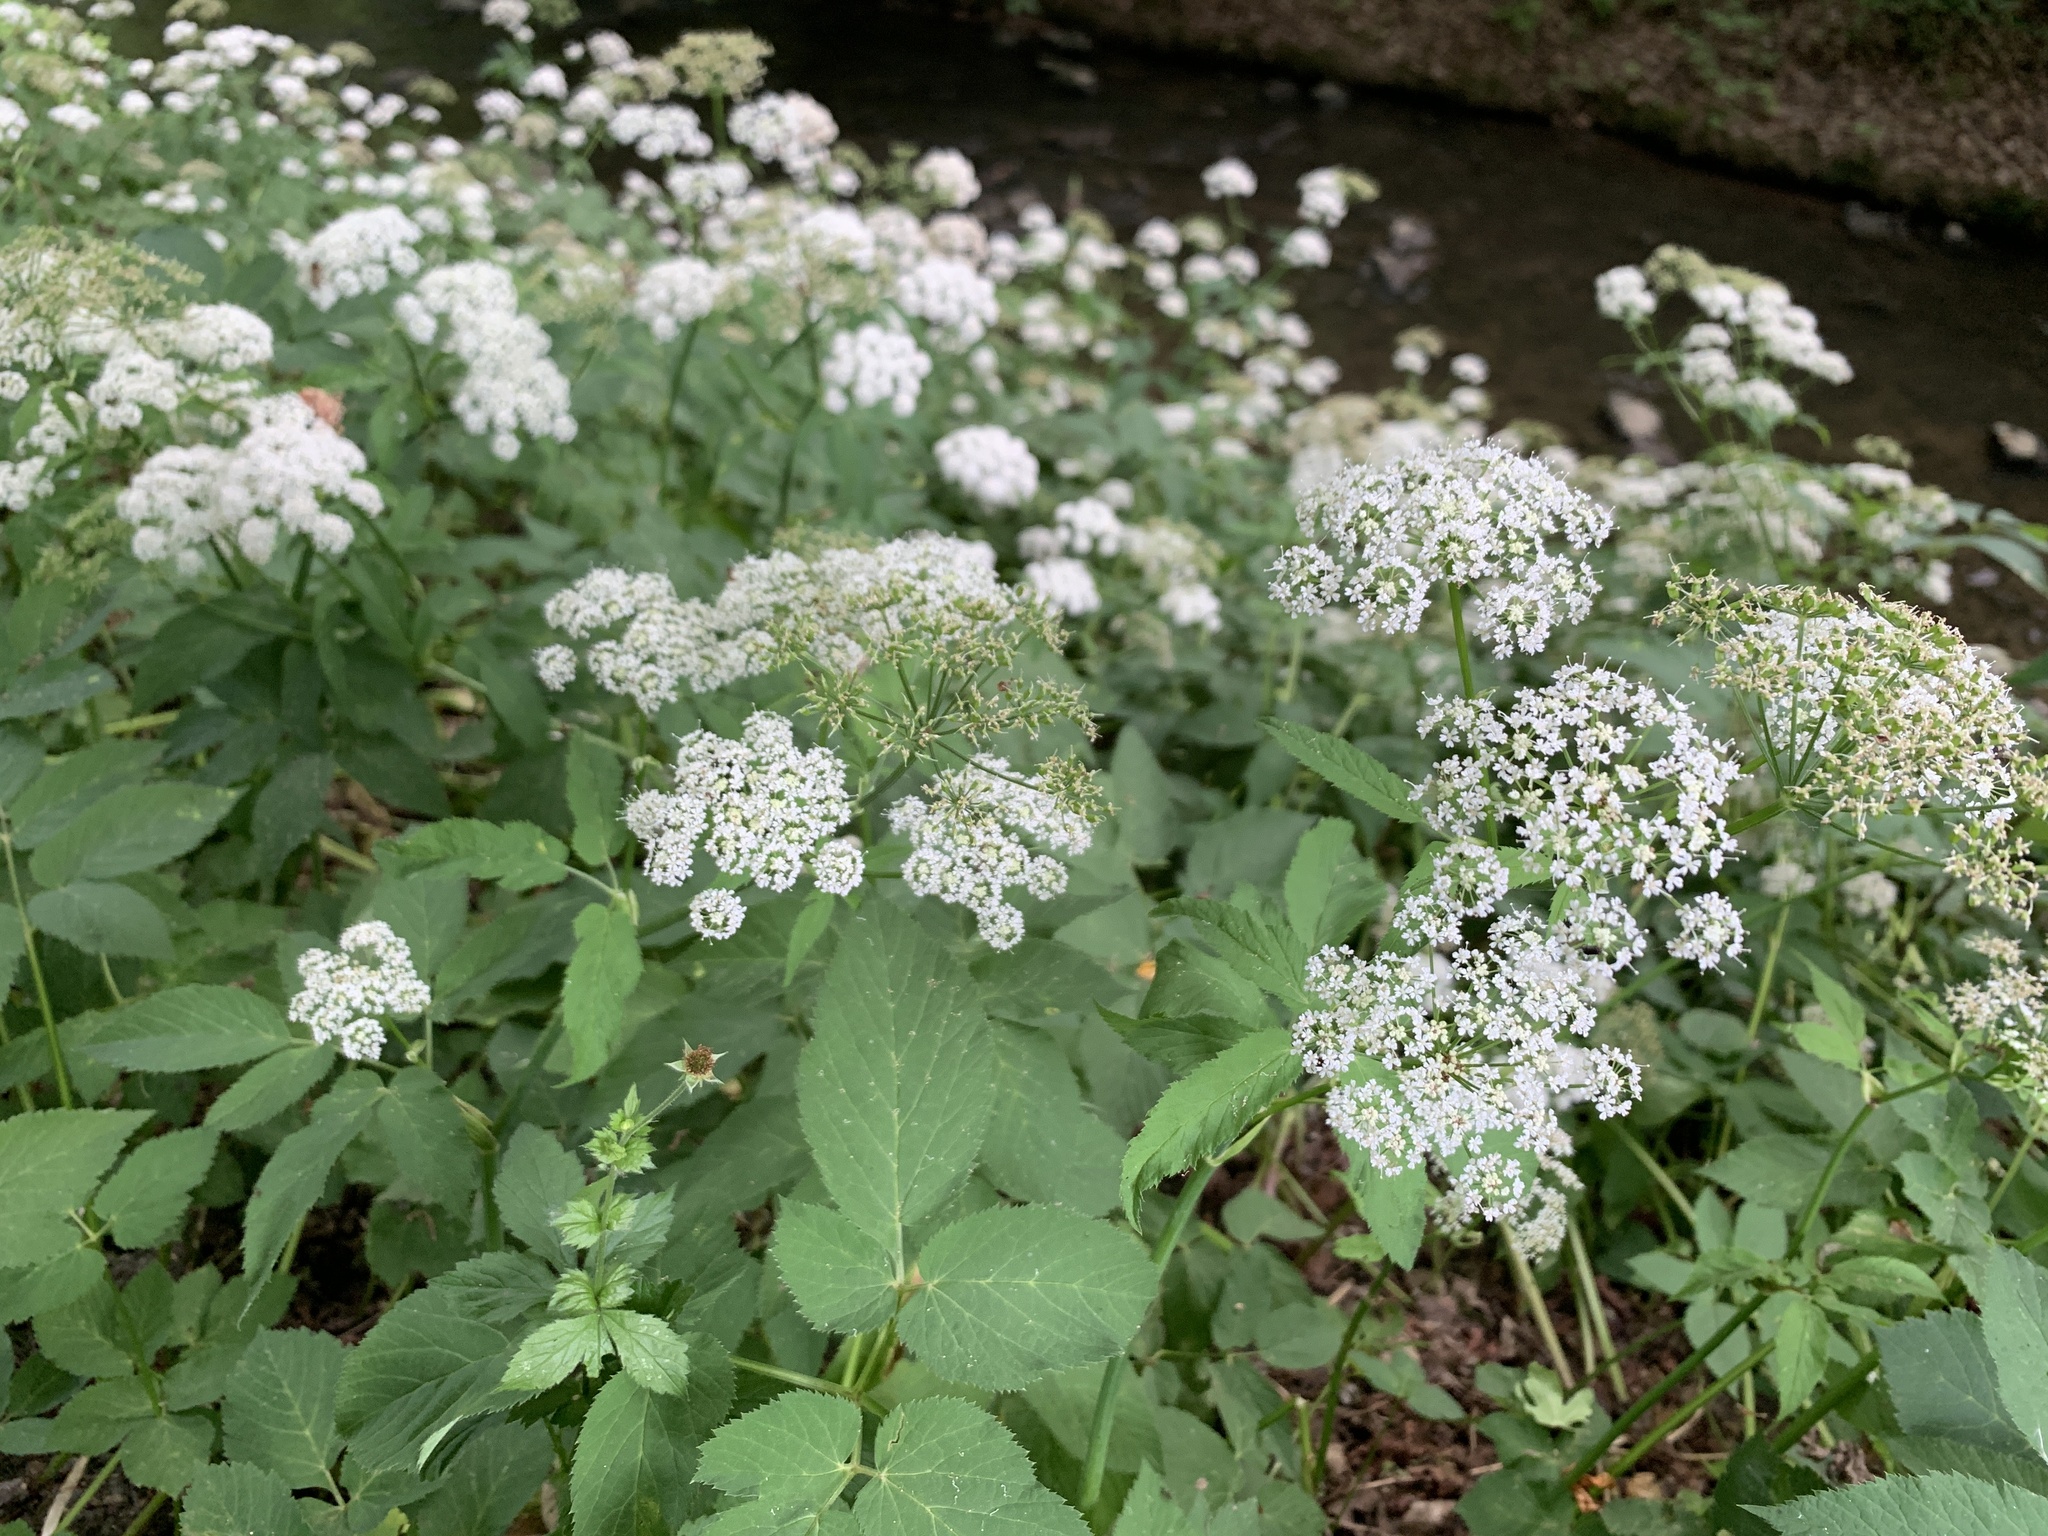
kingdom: Plantae
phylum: Tracheophyta
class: Magnoliopsida
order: Apiales
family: Apiaceae
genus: Aegopodium
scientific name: Aegopodium podagraria
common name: Ground-elder
